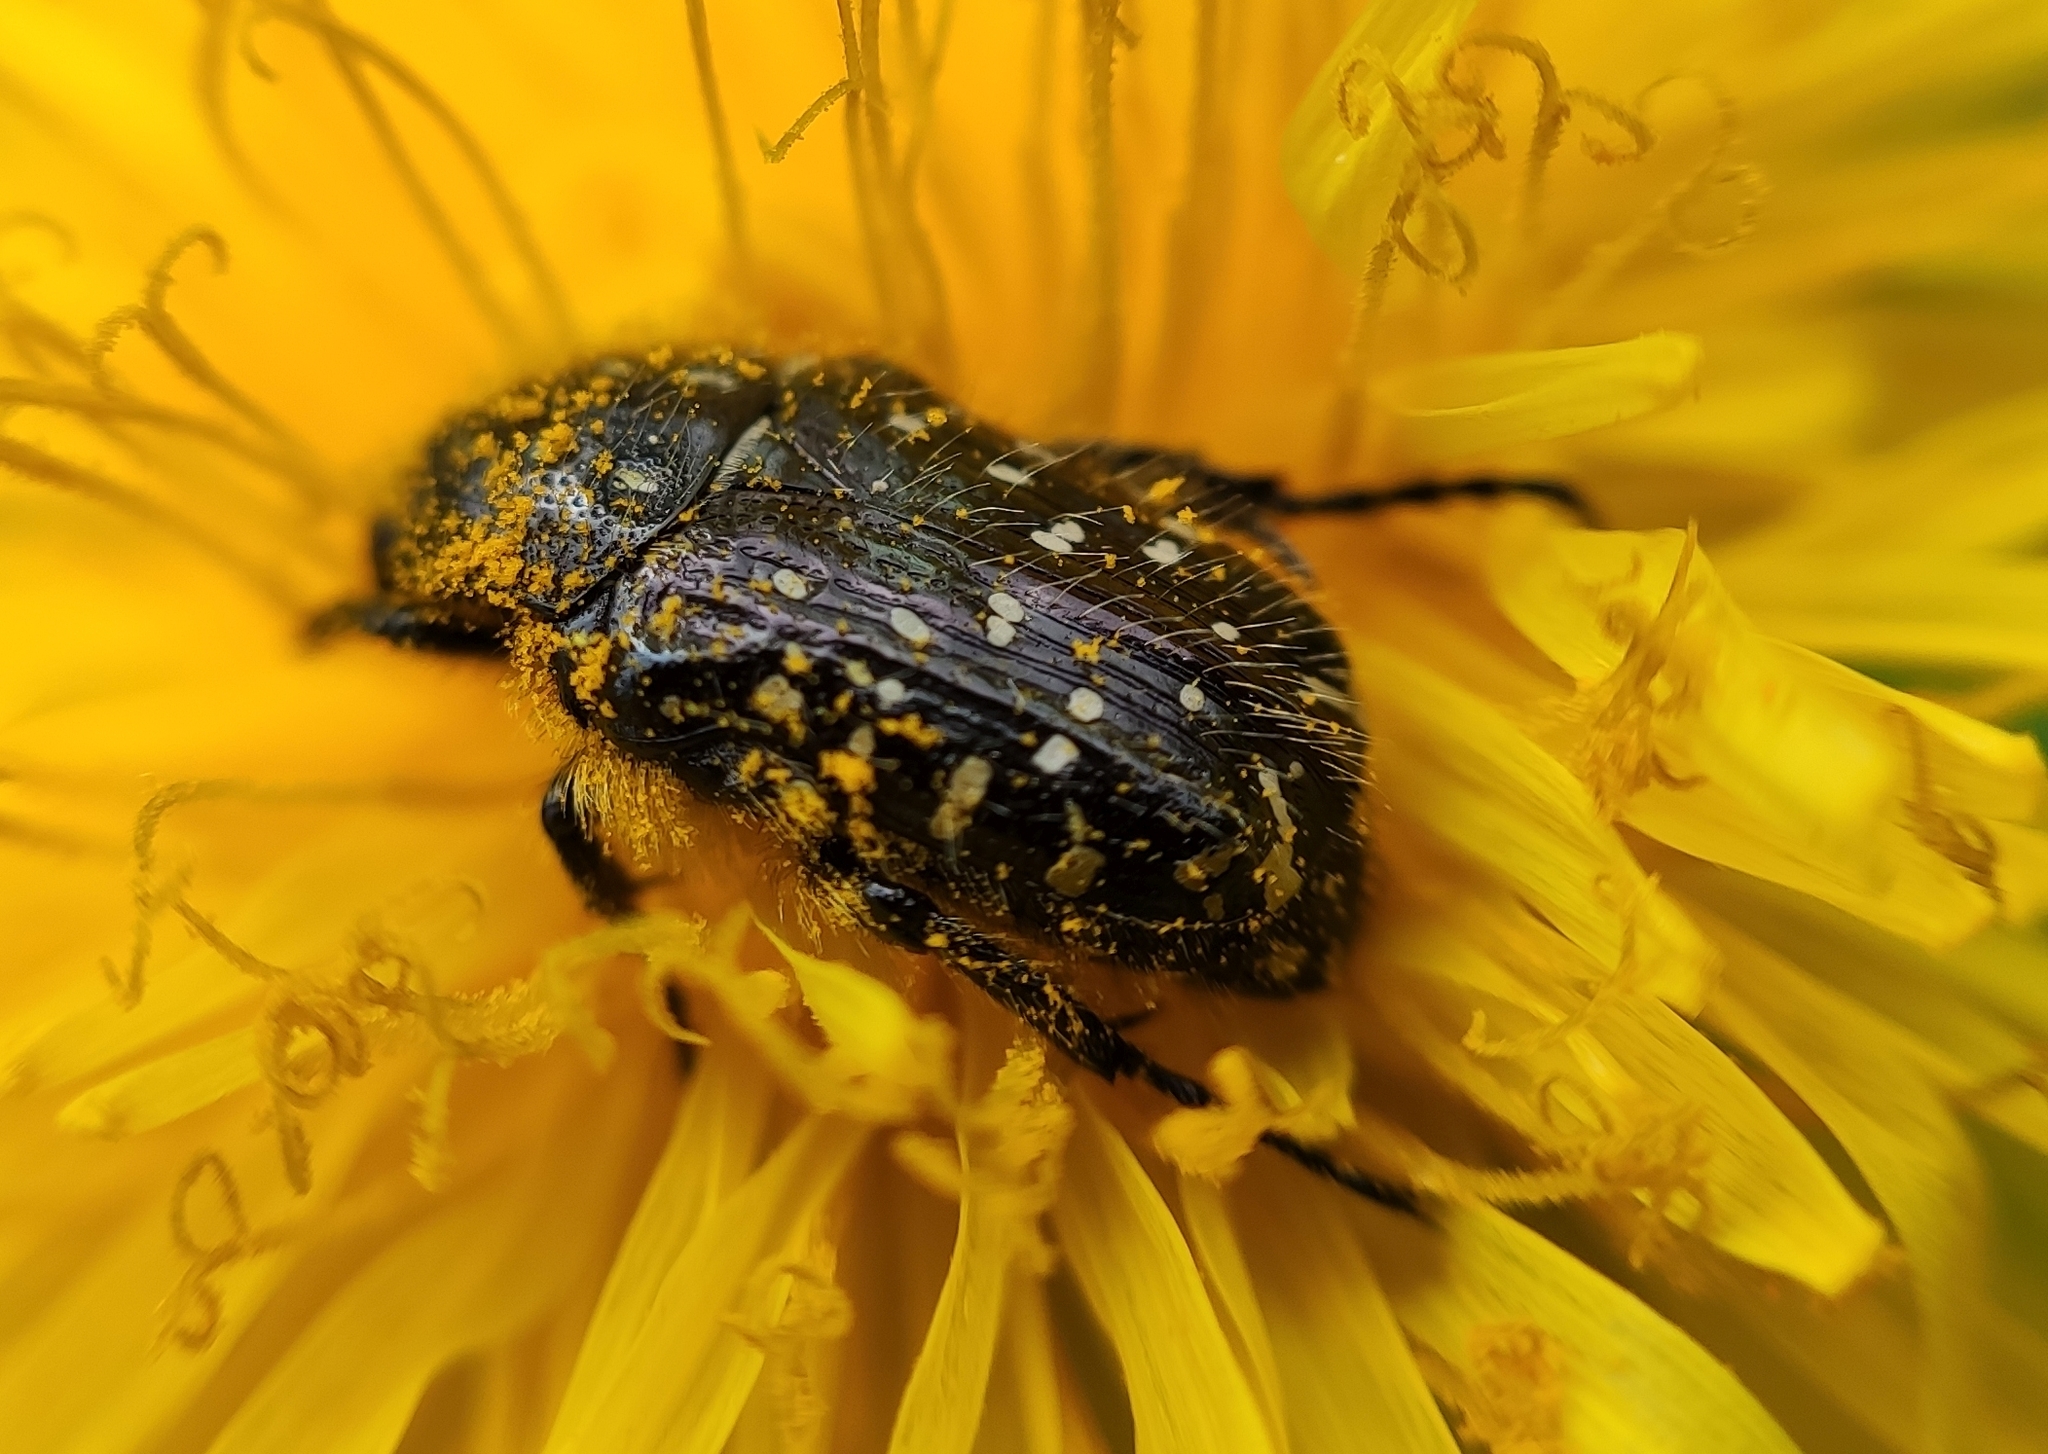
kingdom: Animalia
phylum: Arthropoda
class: Insecta
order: Coleoptera
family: Scarabaeidae
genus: Oxythyrea
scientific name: Oxythyrea funesta
